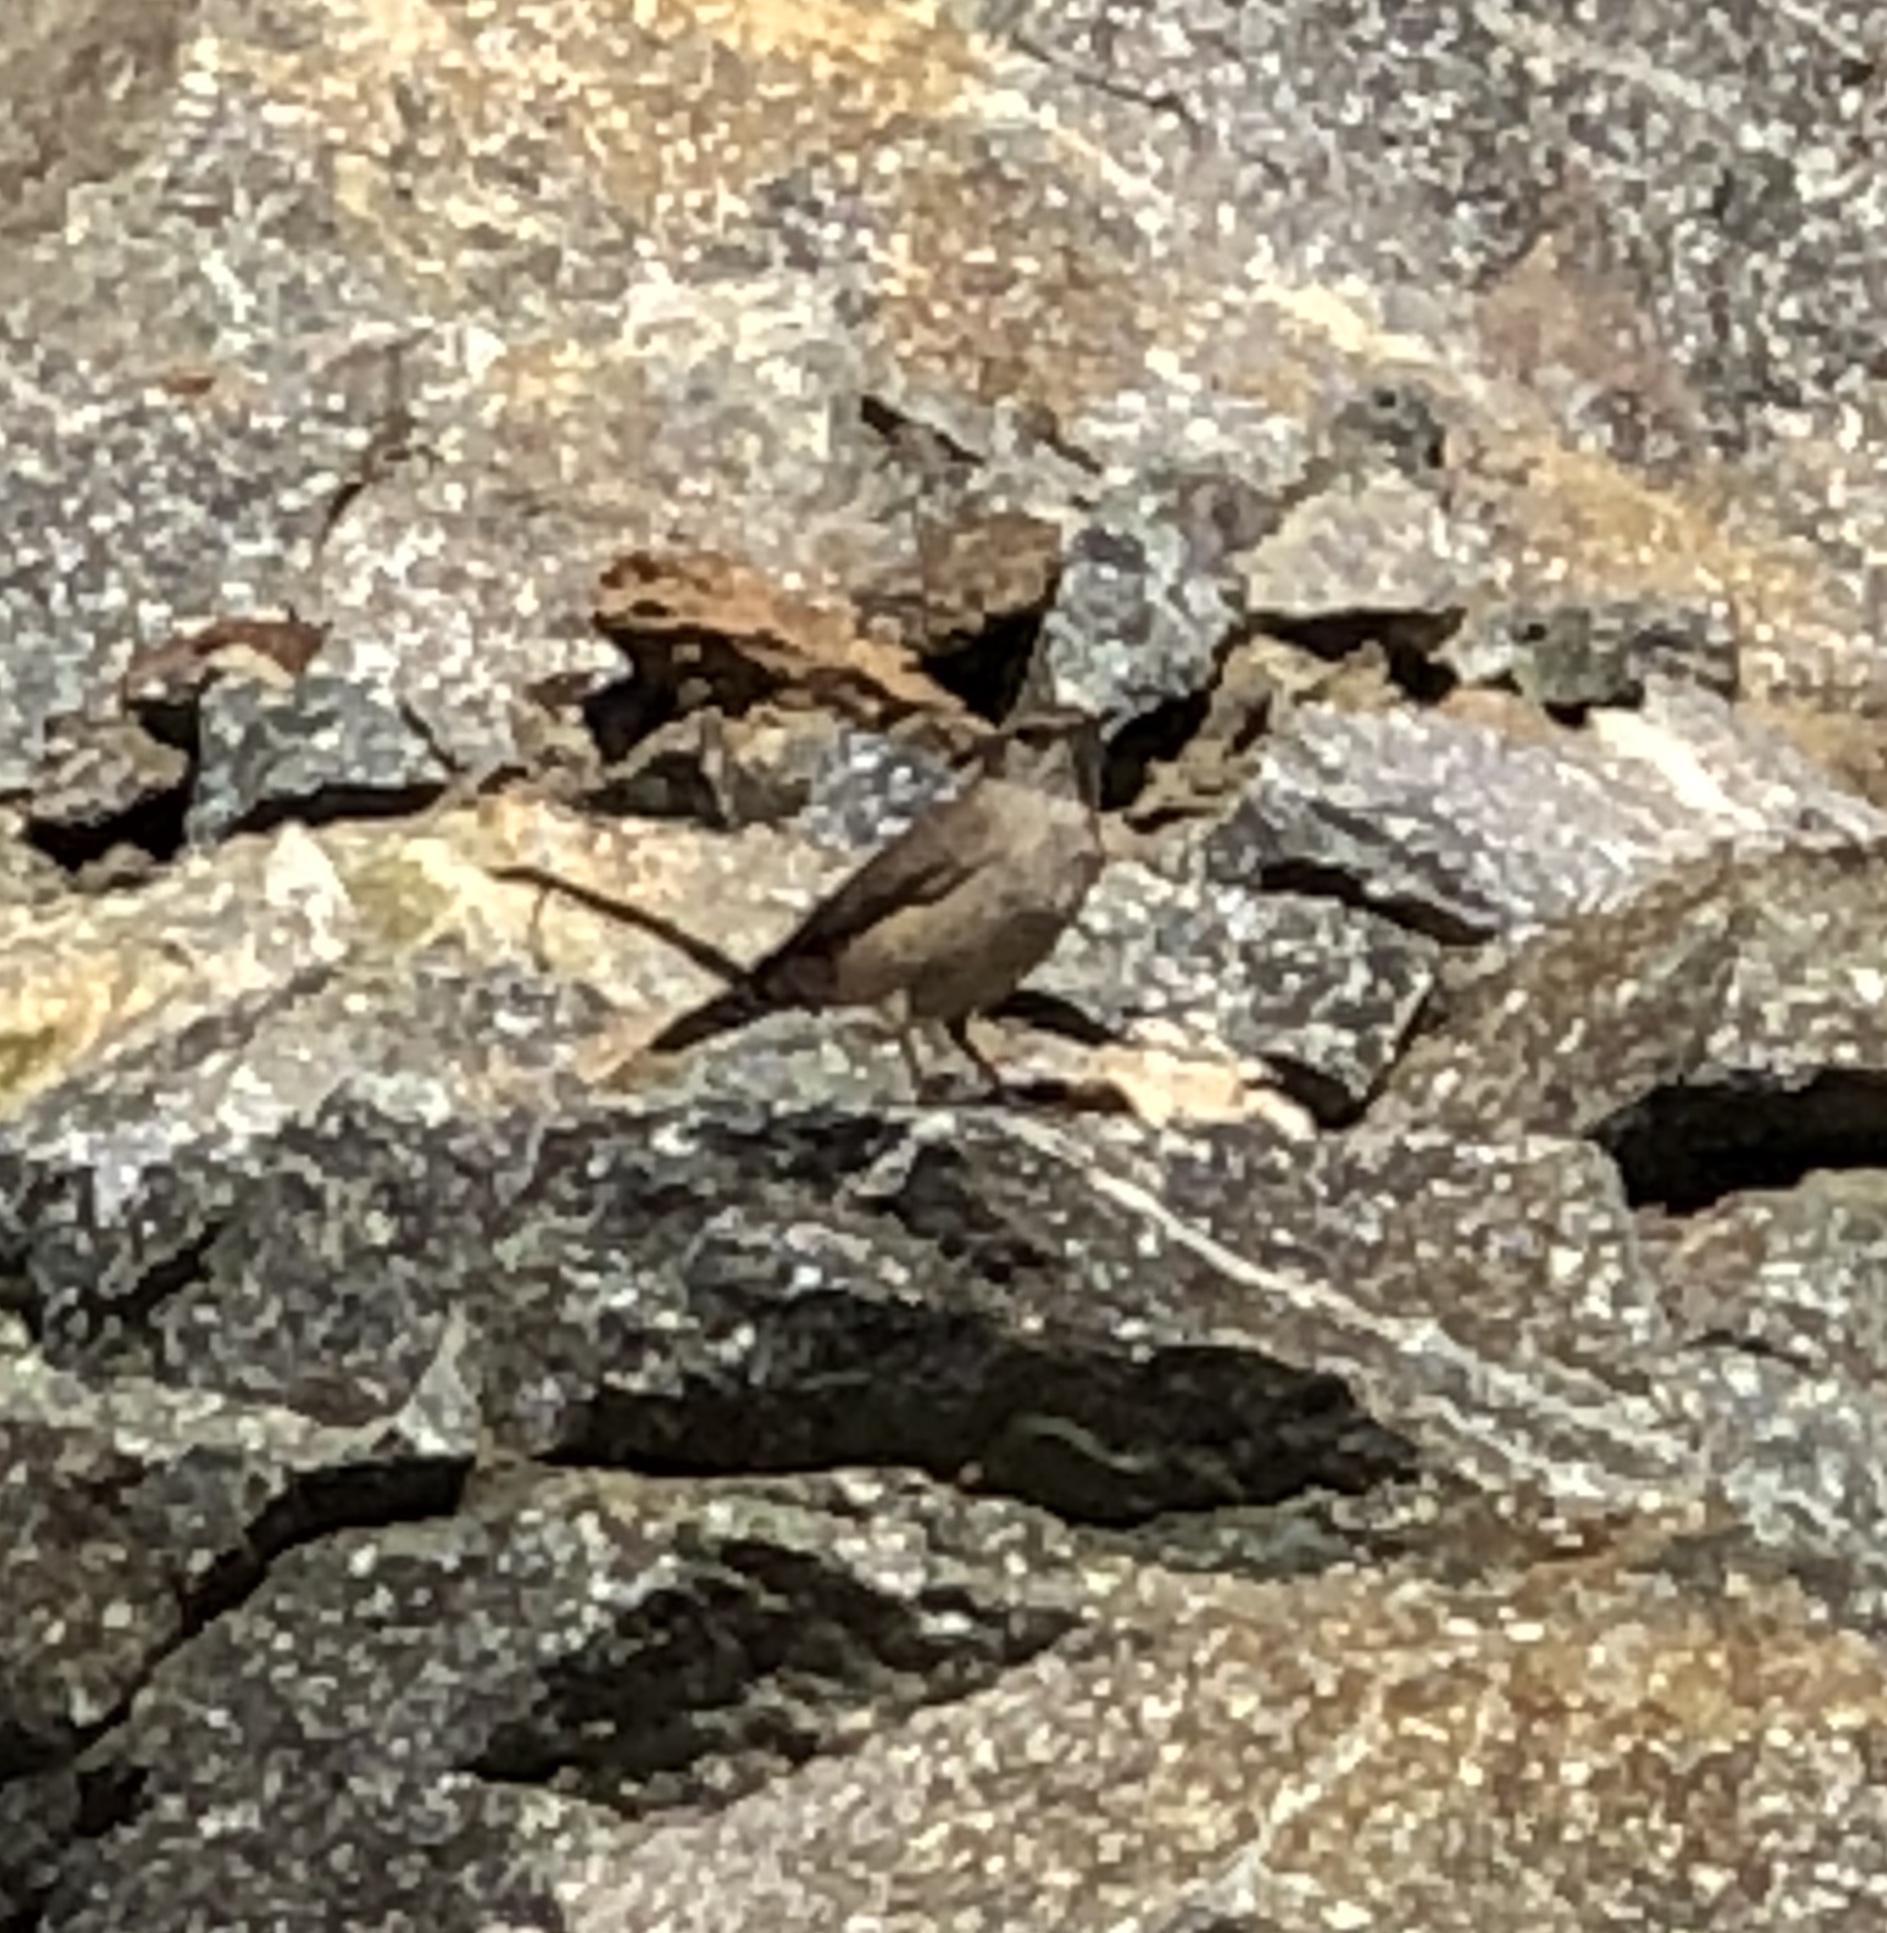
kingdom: Animalia
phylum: Chordata
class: Aves
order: Passeriformes
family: Troglodytidae
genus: Salpinctes
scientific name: Salpinctes obsoletus
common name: Rock wren
